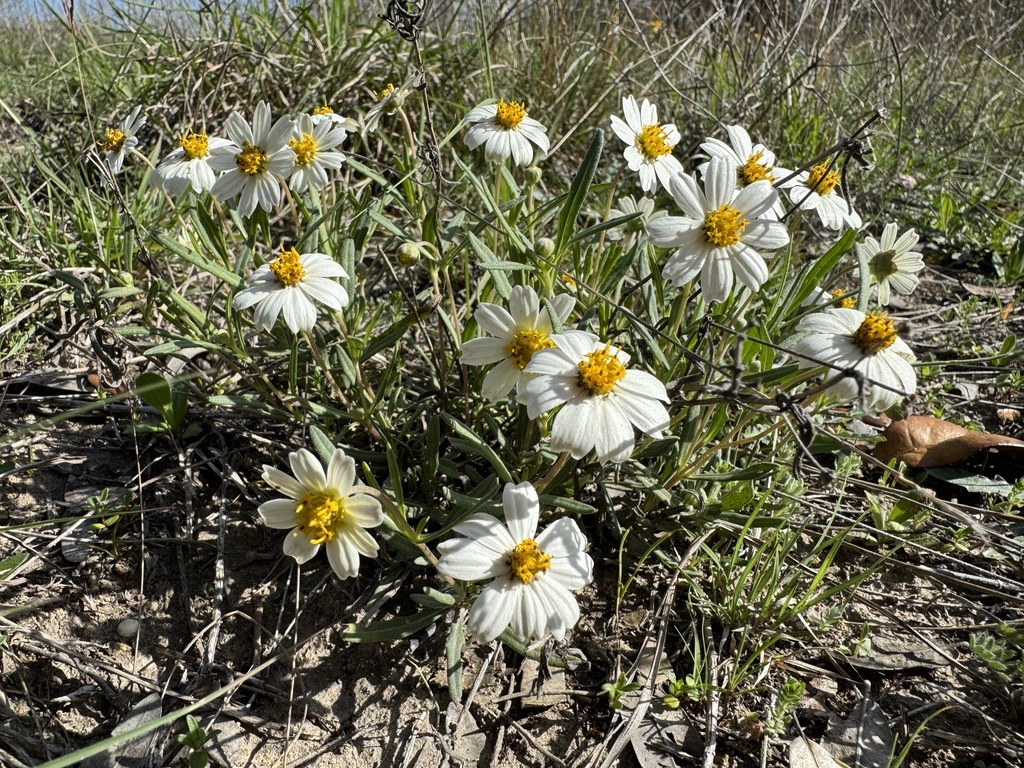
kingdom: Plantae
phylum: Tracheophyta
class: Magnoliopsida
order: Asterales
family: Asteraceae
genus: Melampodium
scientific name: Melampodium leucanthum
